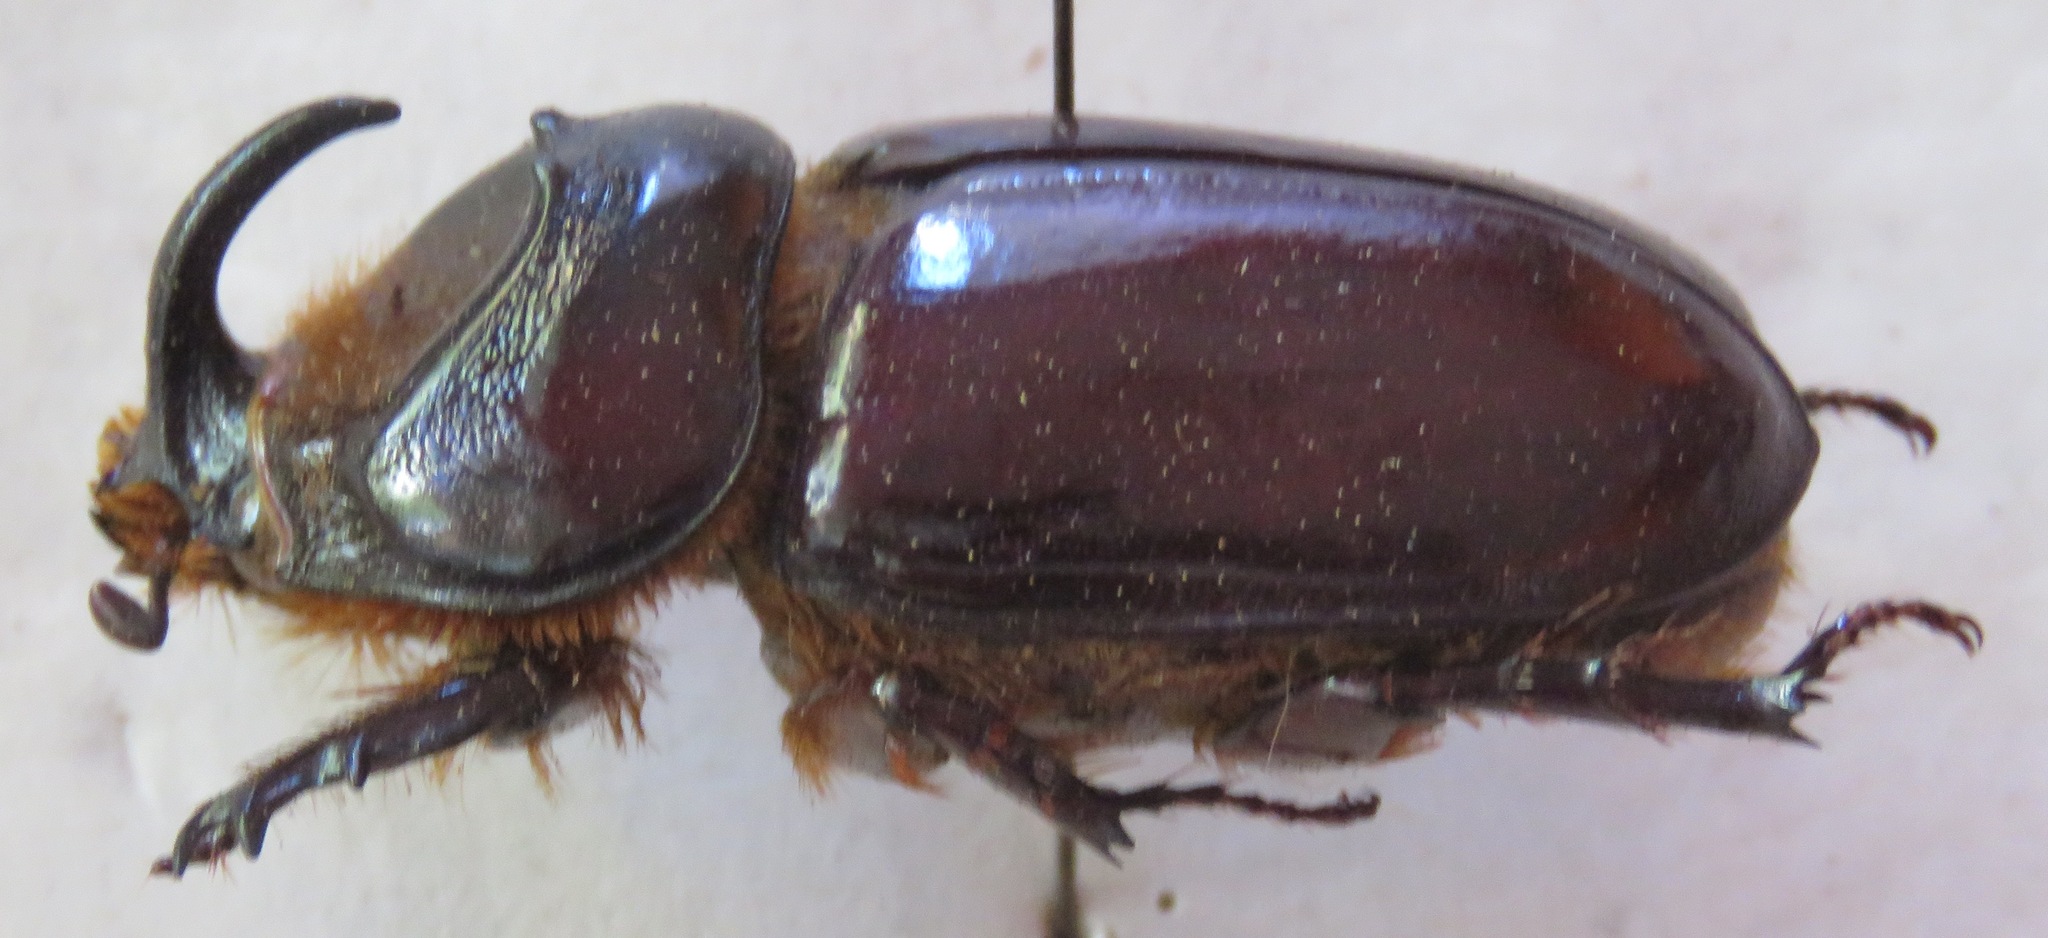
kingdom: Animalia
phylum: Arthropoda
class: Insecta
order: Coleoptera
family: Scarabaeidae
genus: Oryctes
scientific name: Oryctes boas
